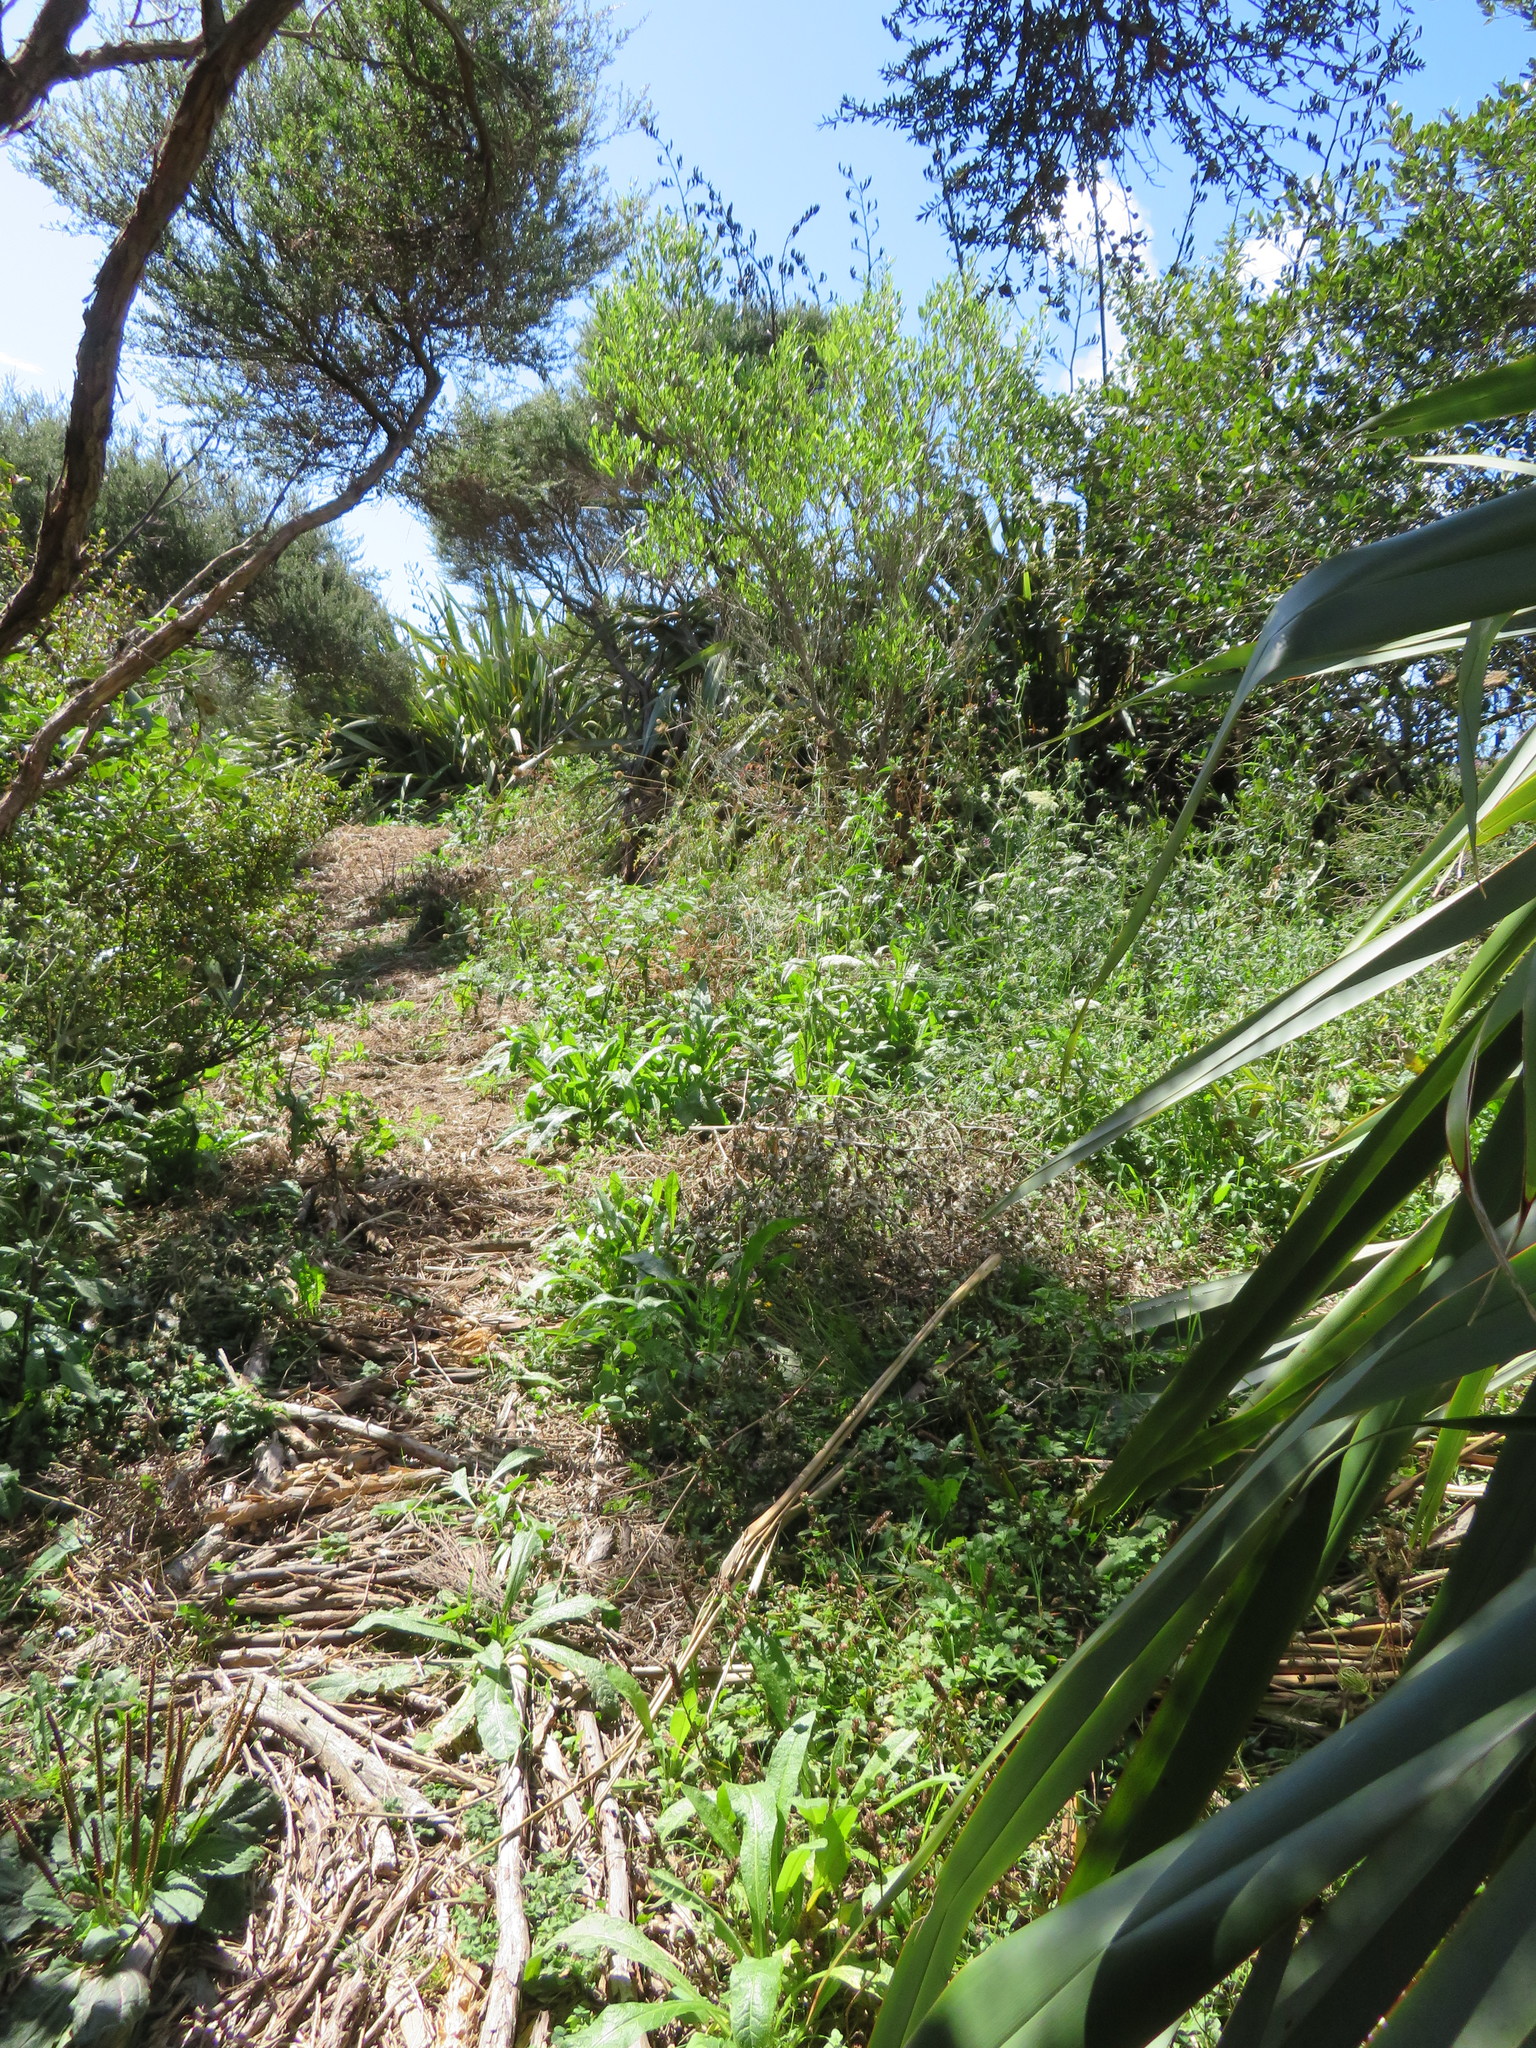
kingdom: Plantae
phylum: Tracheophyta
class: Magnoliopsida
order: Asterales
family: Asteraceae
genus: Helminthotheca
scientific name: Helminthotheca echioides
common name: Ox-tongue
